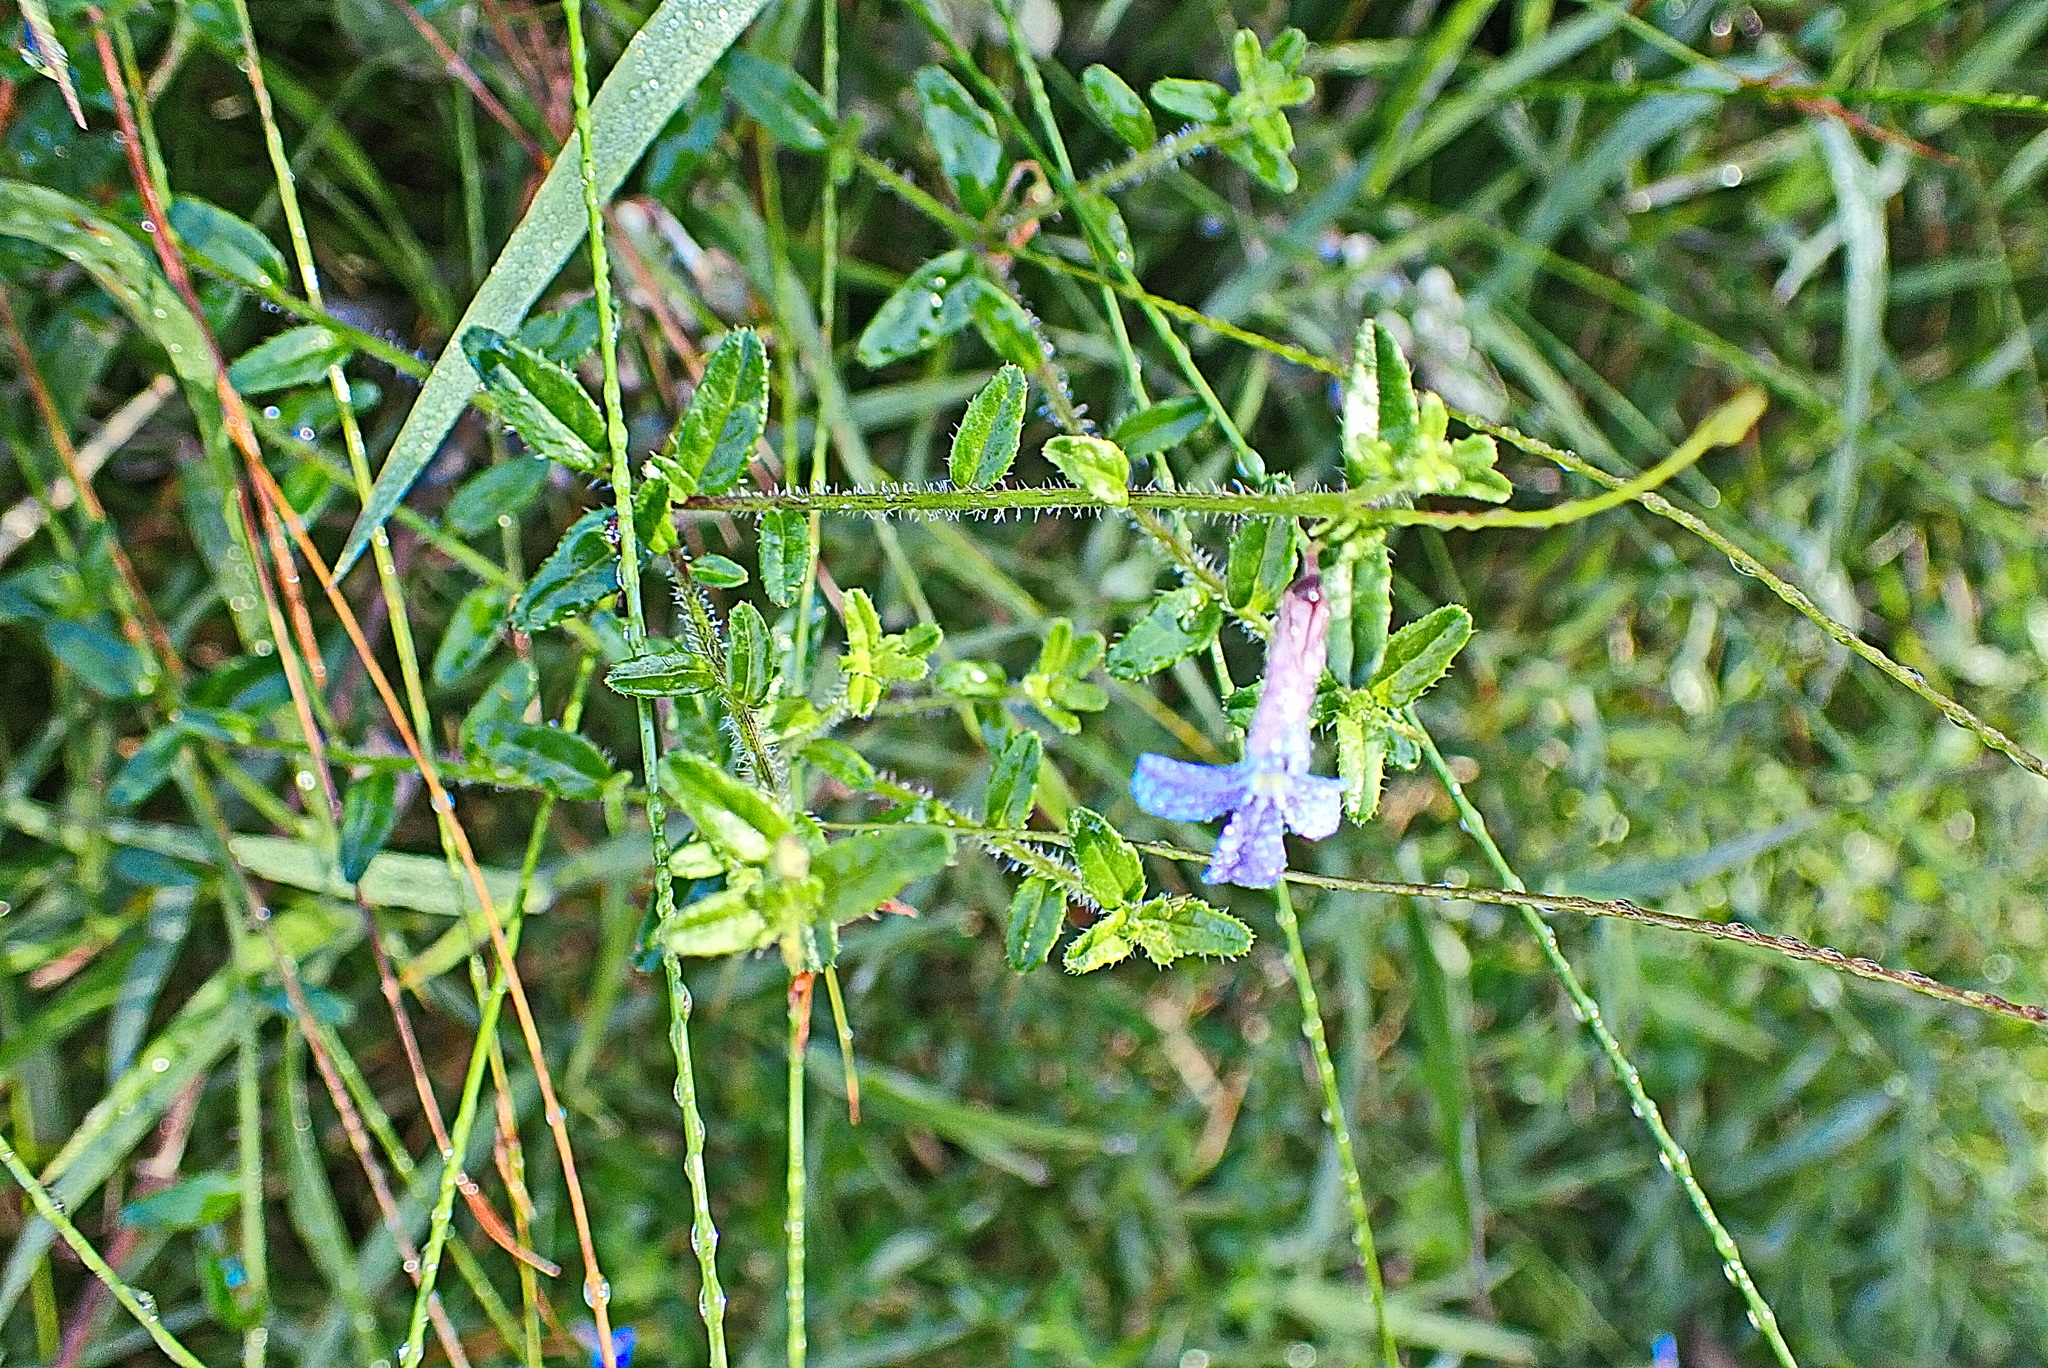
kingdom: Plantae
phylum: Tracheophyta
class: Magnoliopsida
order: Asterales
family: Campanulaceae
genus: Lobelia
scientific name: Lobelia neglecta
